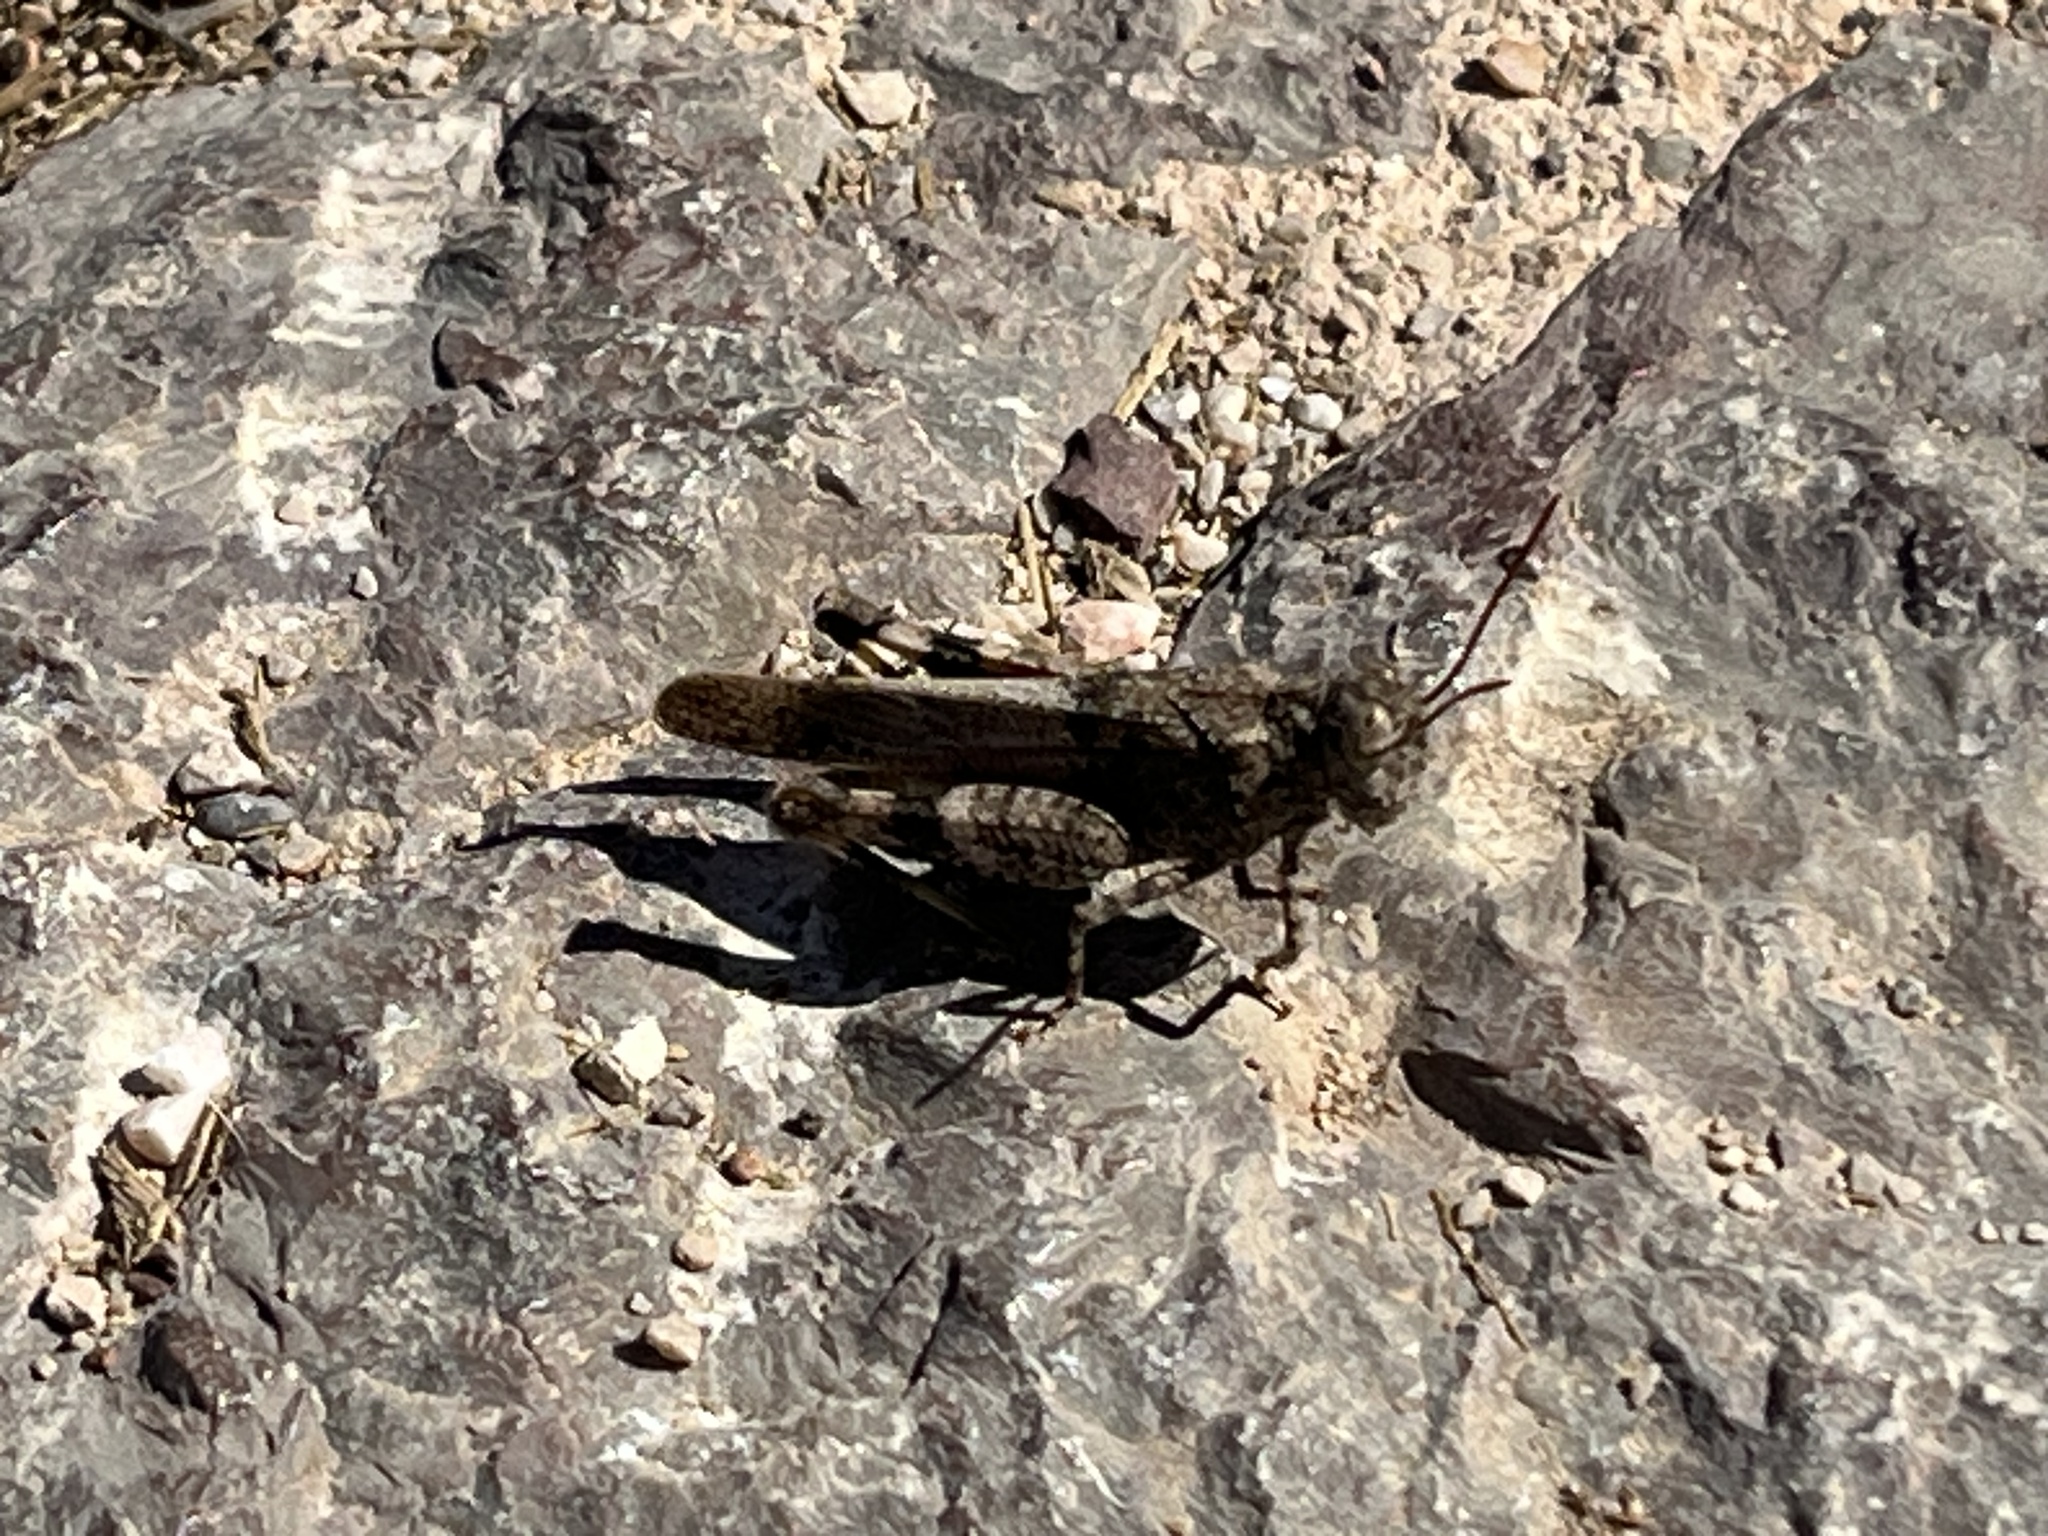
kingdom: Animalia
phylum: Arthropoda
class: Insecta
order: Orthoptera
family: Acrididae
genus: Oedipoda
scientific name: Oedipoda
